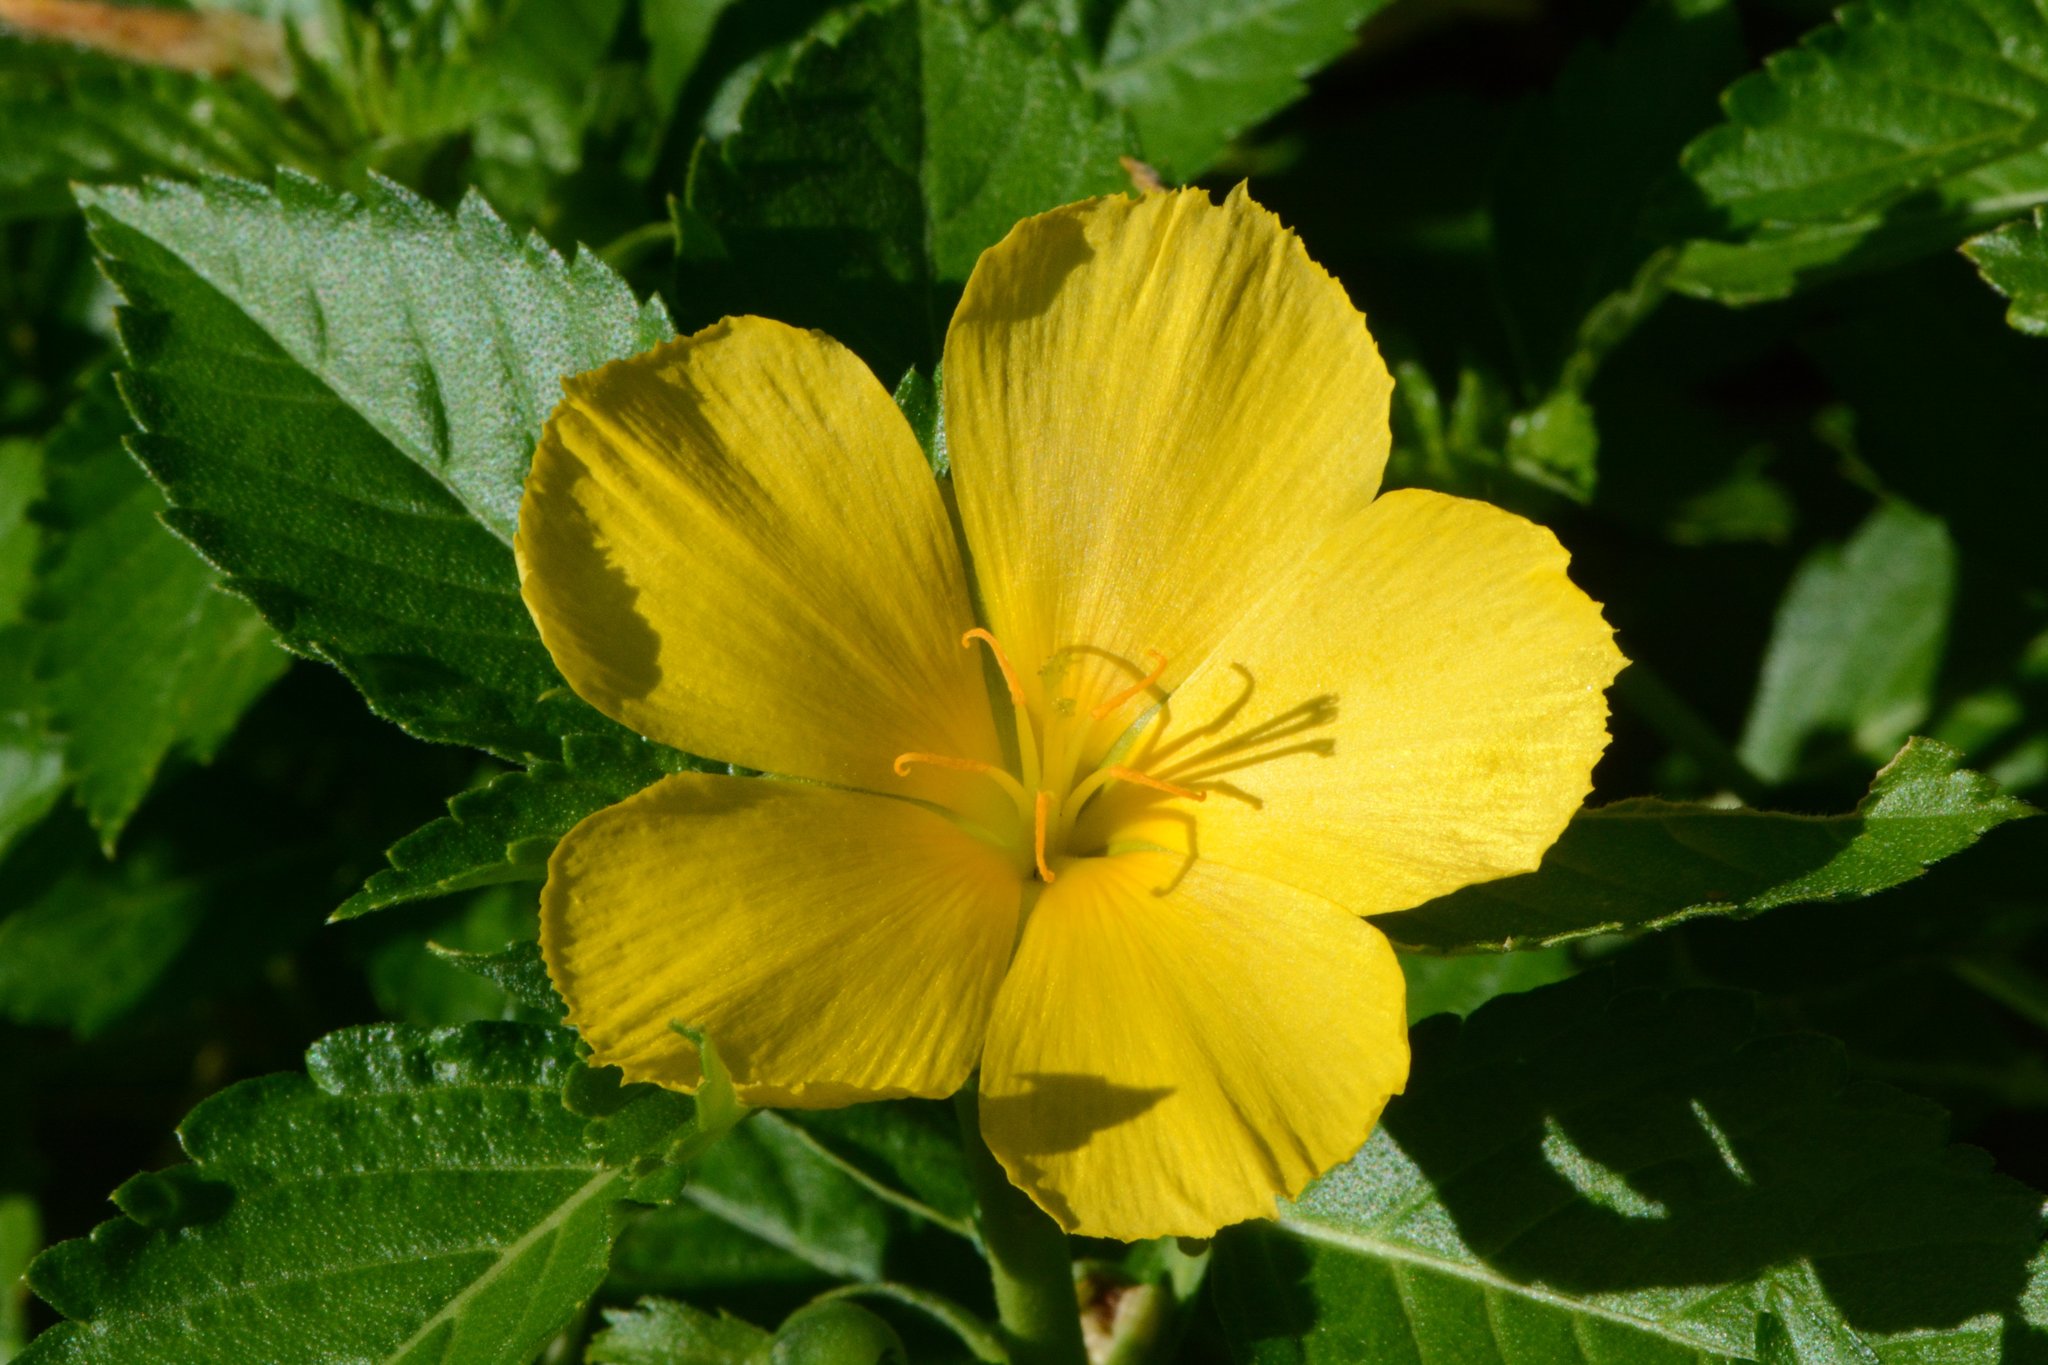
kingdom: Plantae
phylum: Tracheophyta
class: Magnoliopsida
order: Malpighiales
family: Turneraceae
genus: Turnera
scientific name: Turnera ulmifolia
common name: Ramgoat dashalong
